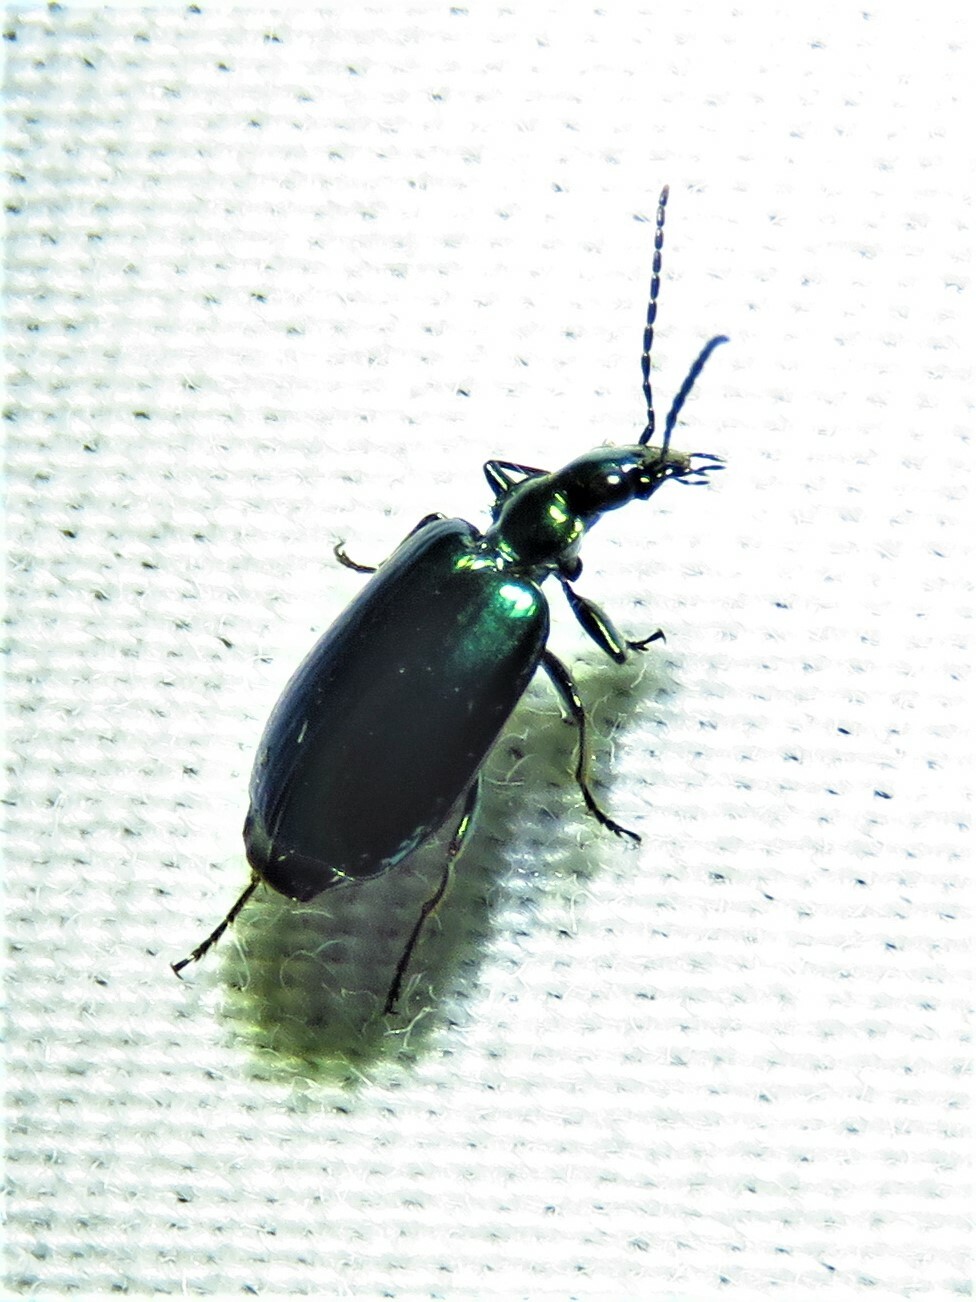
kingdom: Animalia
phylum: Arthropoda
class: Insecta
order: Coleoptera
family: Carabidae
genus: Lebia
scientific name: Lebia viridis
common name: Flower lebia beetle
